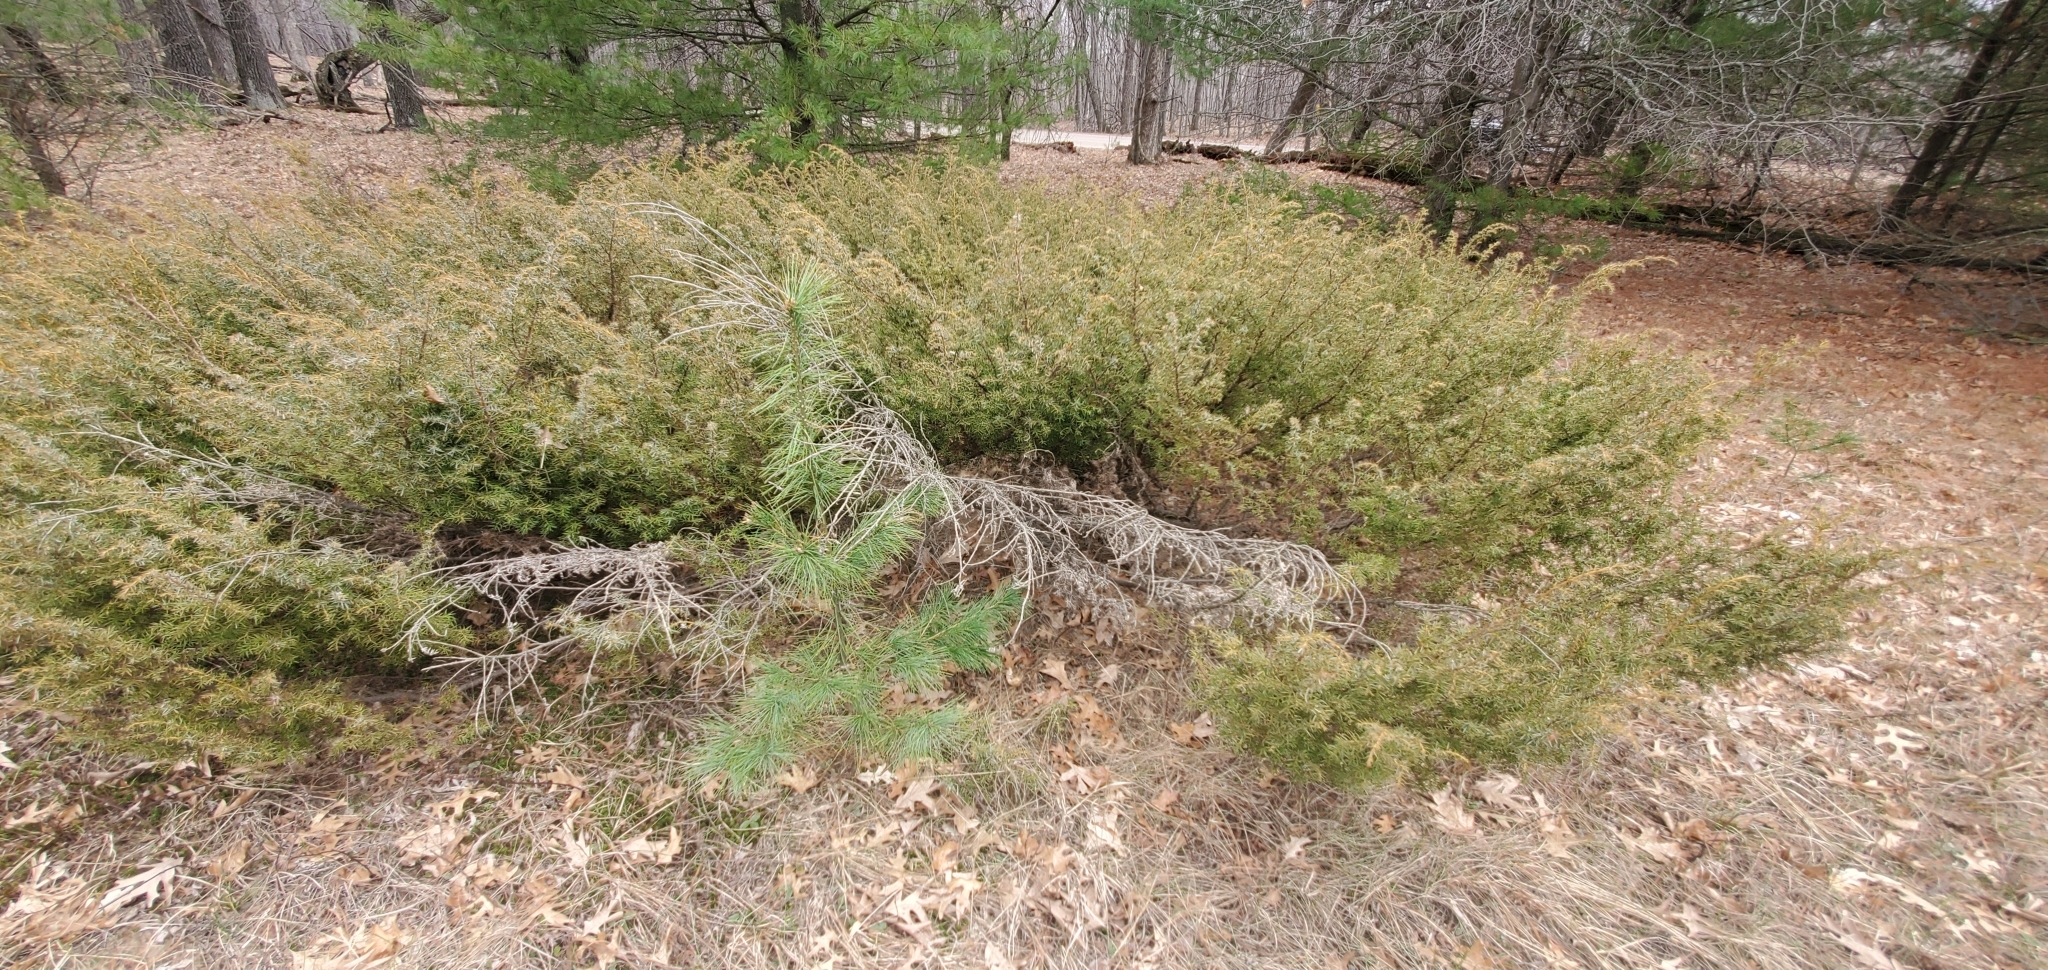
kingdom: Plantae
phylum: Tracheophyta
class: Pinopsida
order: Pinales
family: Cupressaceae
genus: Juniperus
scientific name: Juniperus communis
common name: Common juniper
